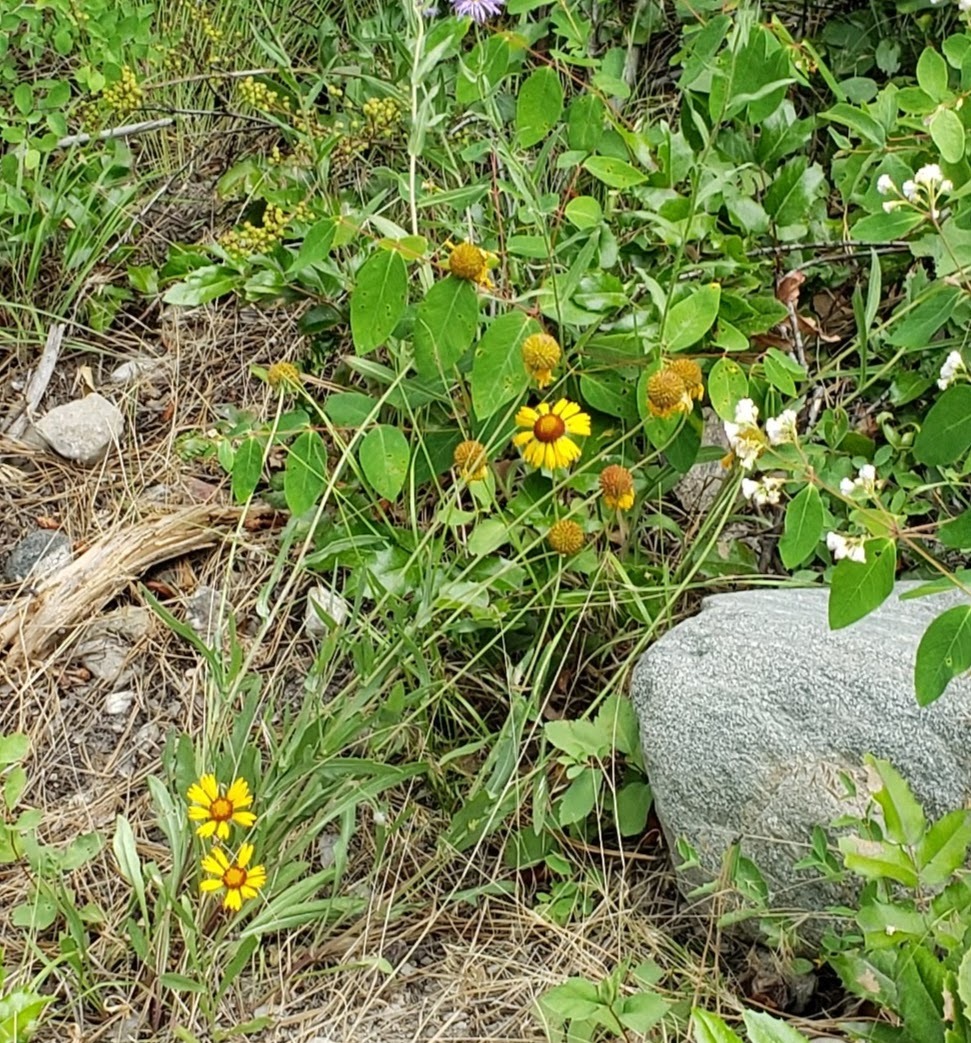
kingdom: Plantae
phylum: Tracheophyta
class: Magnoliopsida
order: Asterales
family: Asteraceae
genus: Gaillardia
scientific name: Gaillardia aristata
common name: Blanket-flower
